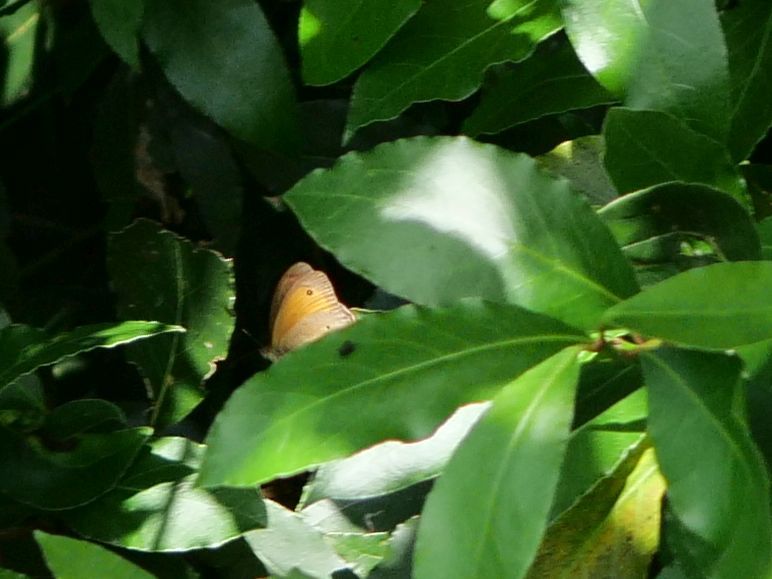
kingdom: Animalia
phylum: Arthropoda
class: Insecta
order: Lepidoptera
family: Nymphalidae
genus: Maniola
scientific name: Maniola jurtina
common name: Meadow brown
